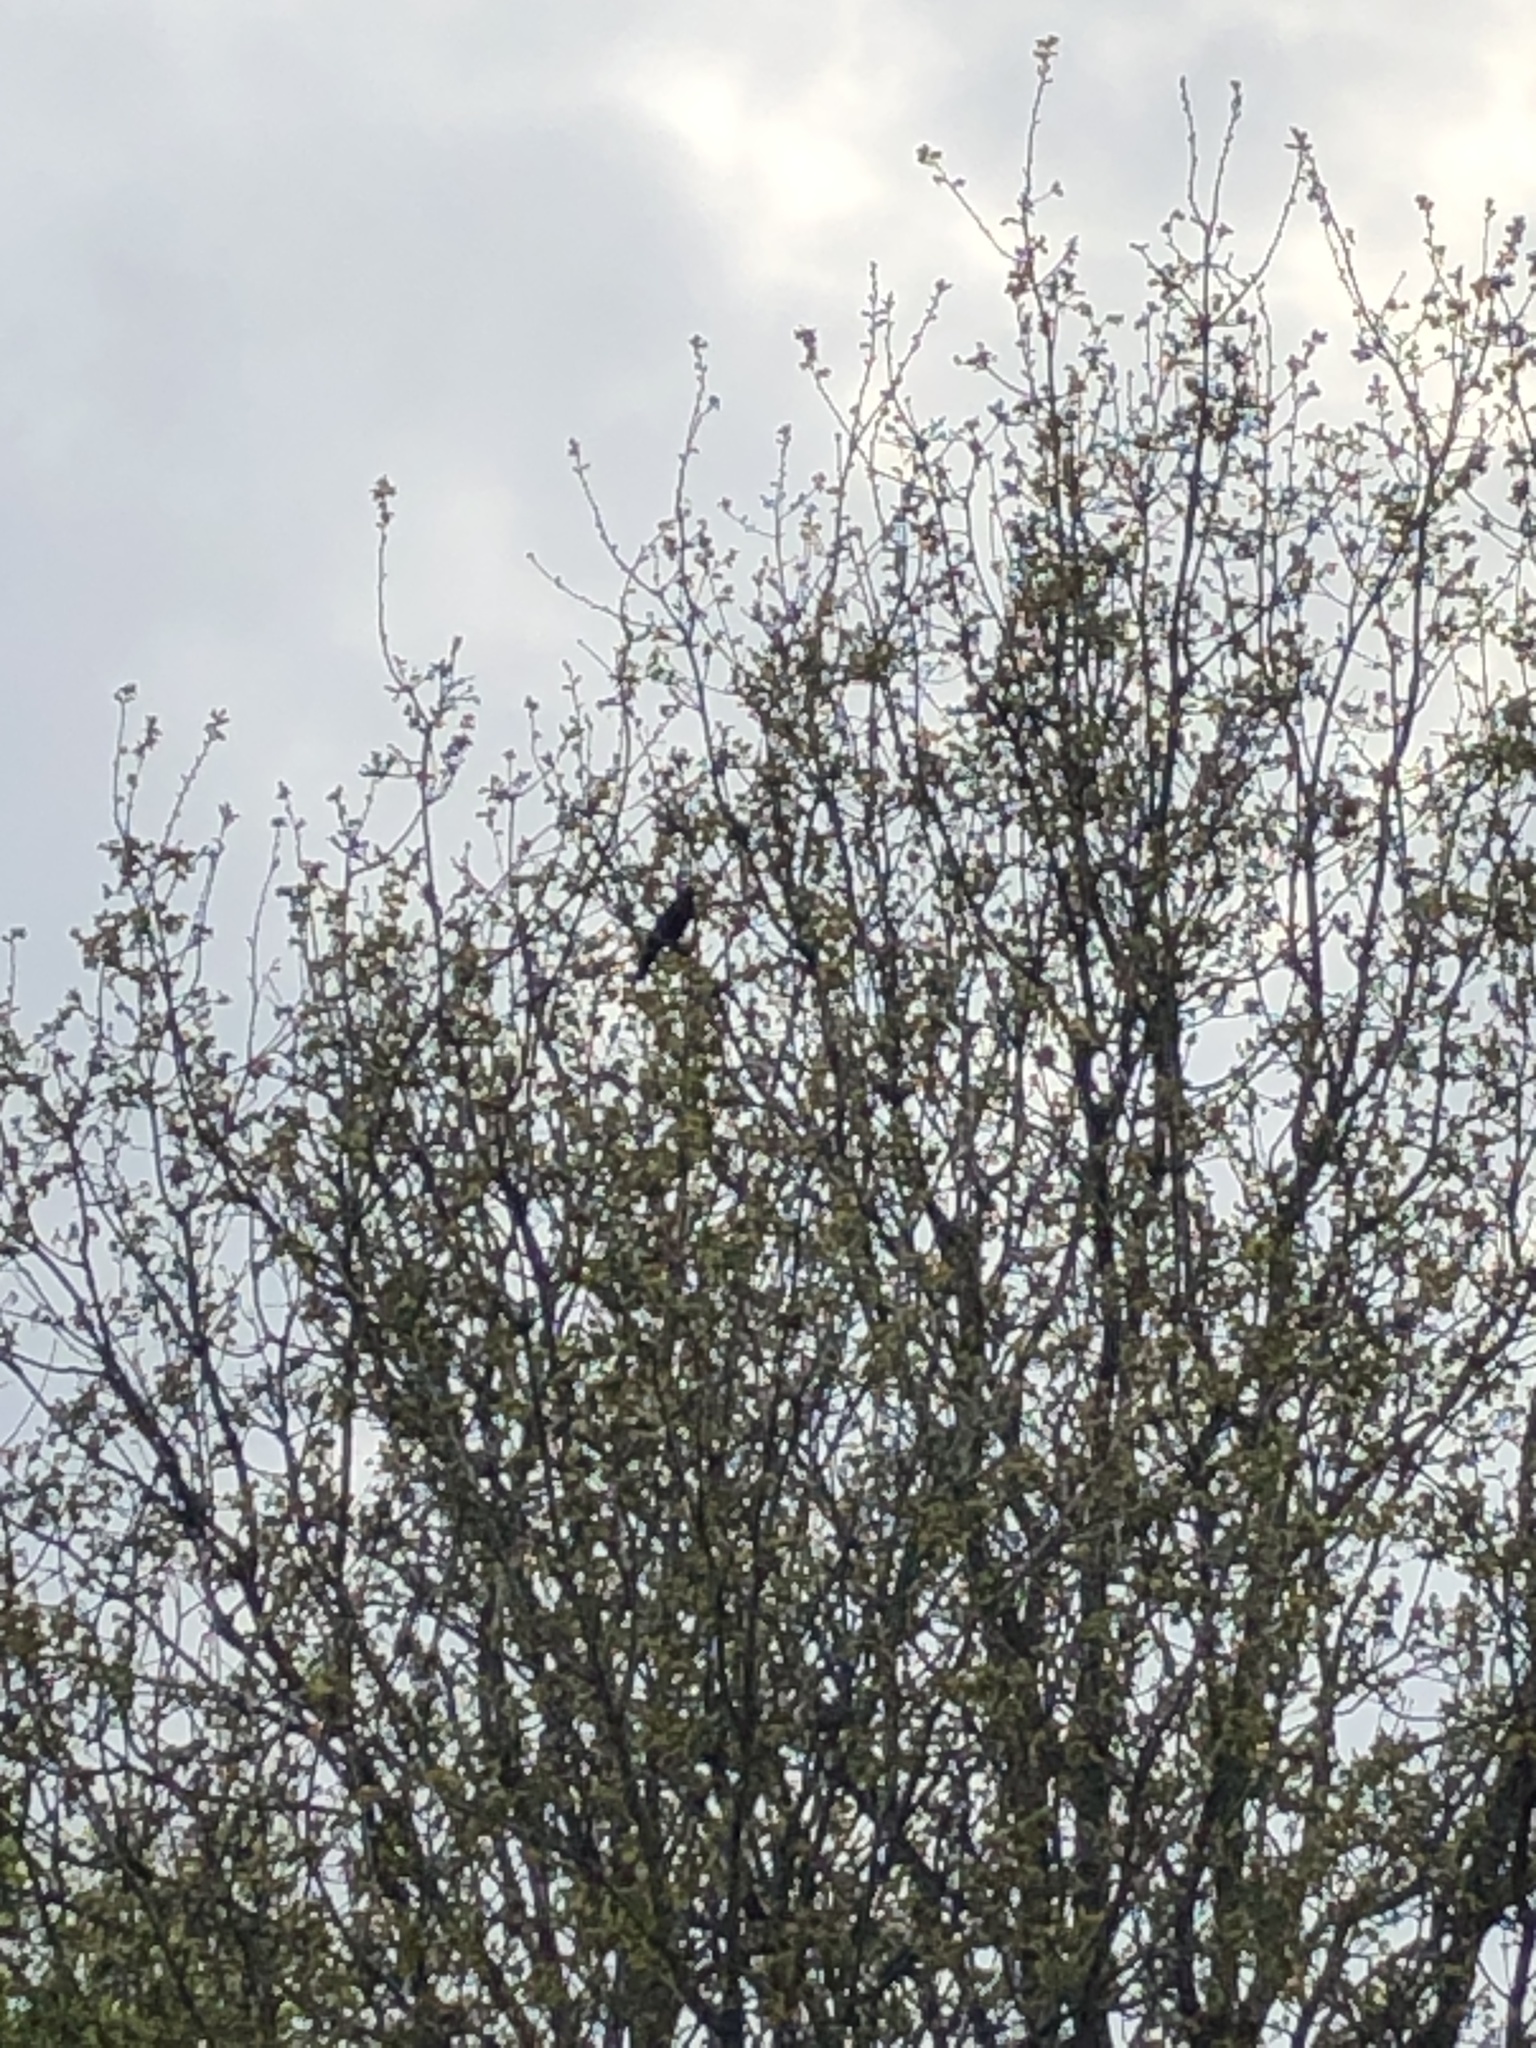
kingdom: Animalia
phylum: Chordata
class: Aves
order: Passeriformes
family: Turdidae
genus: Turdus
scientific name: Turdus merula
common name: Common blackbird
